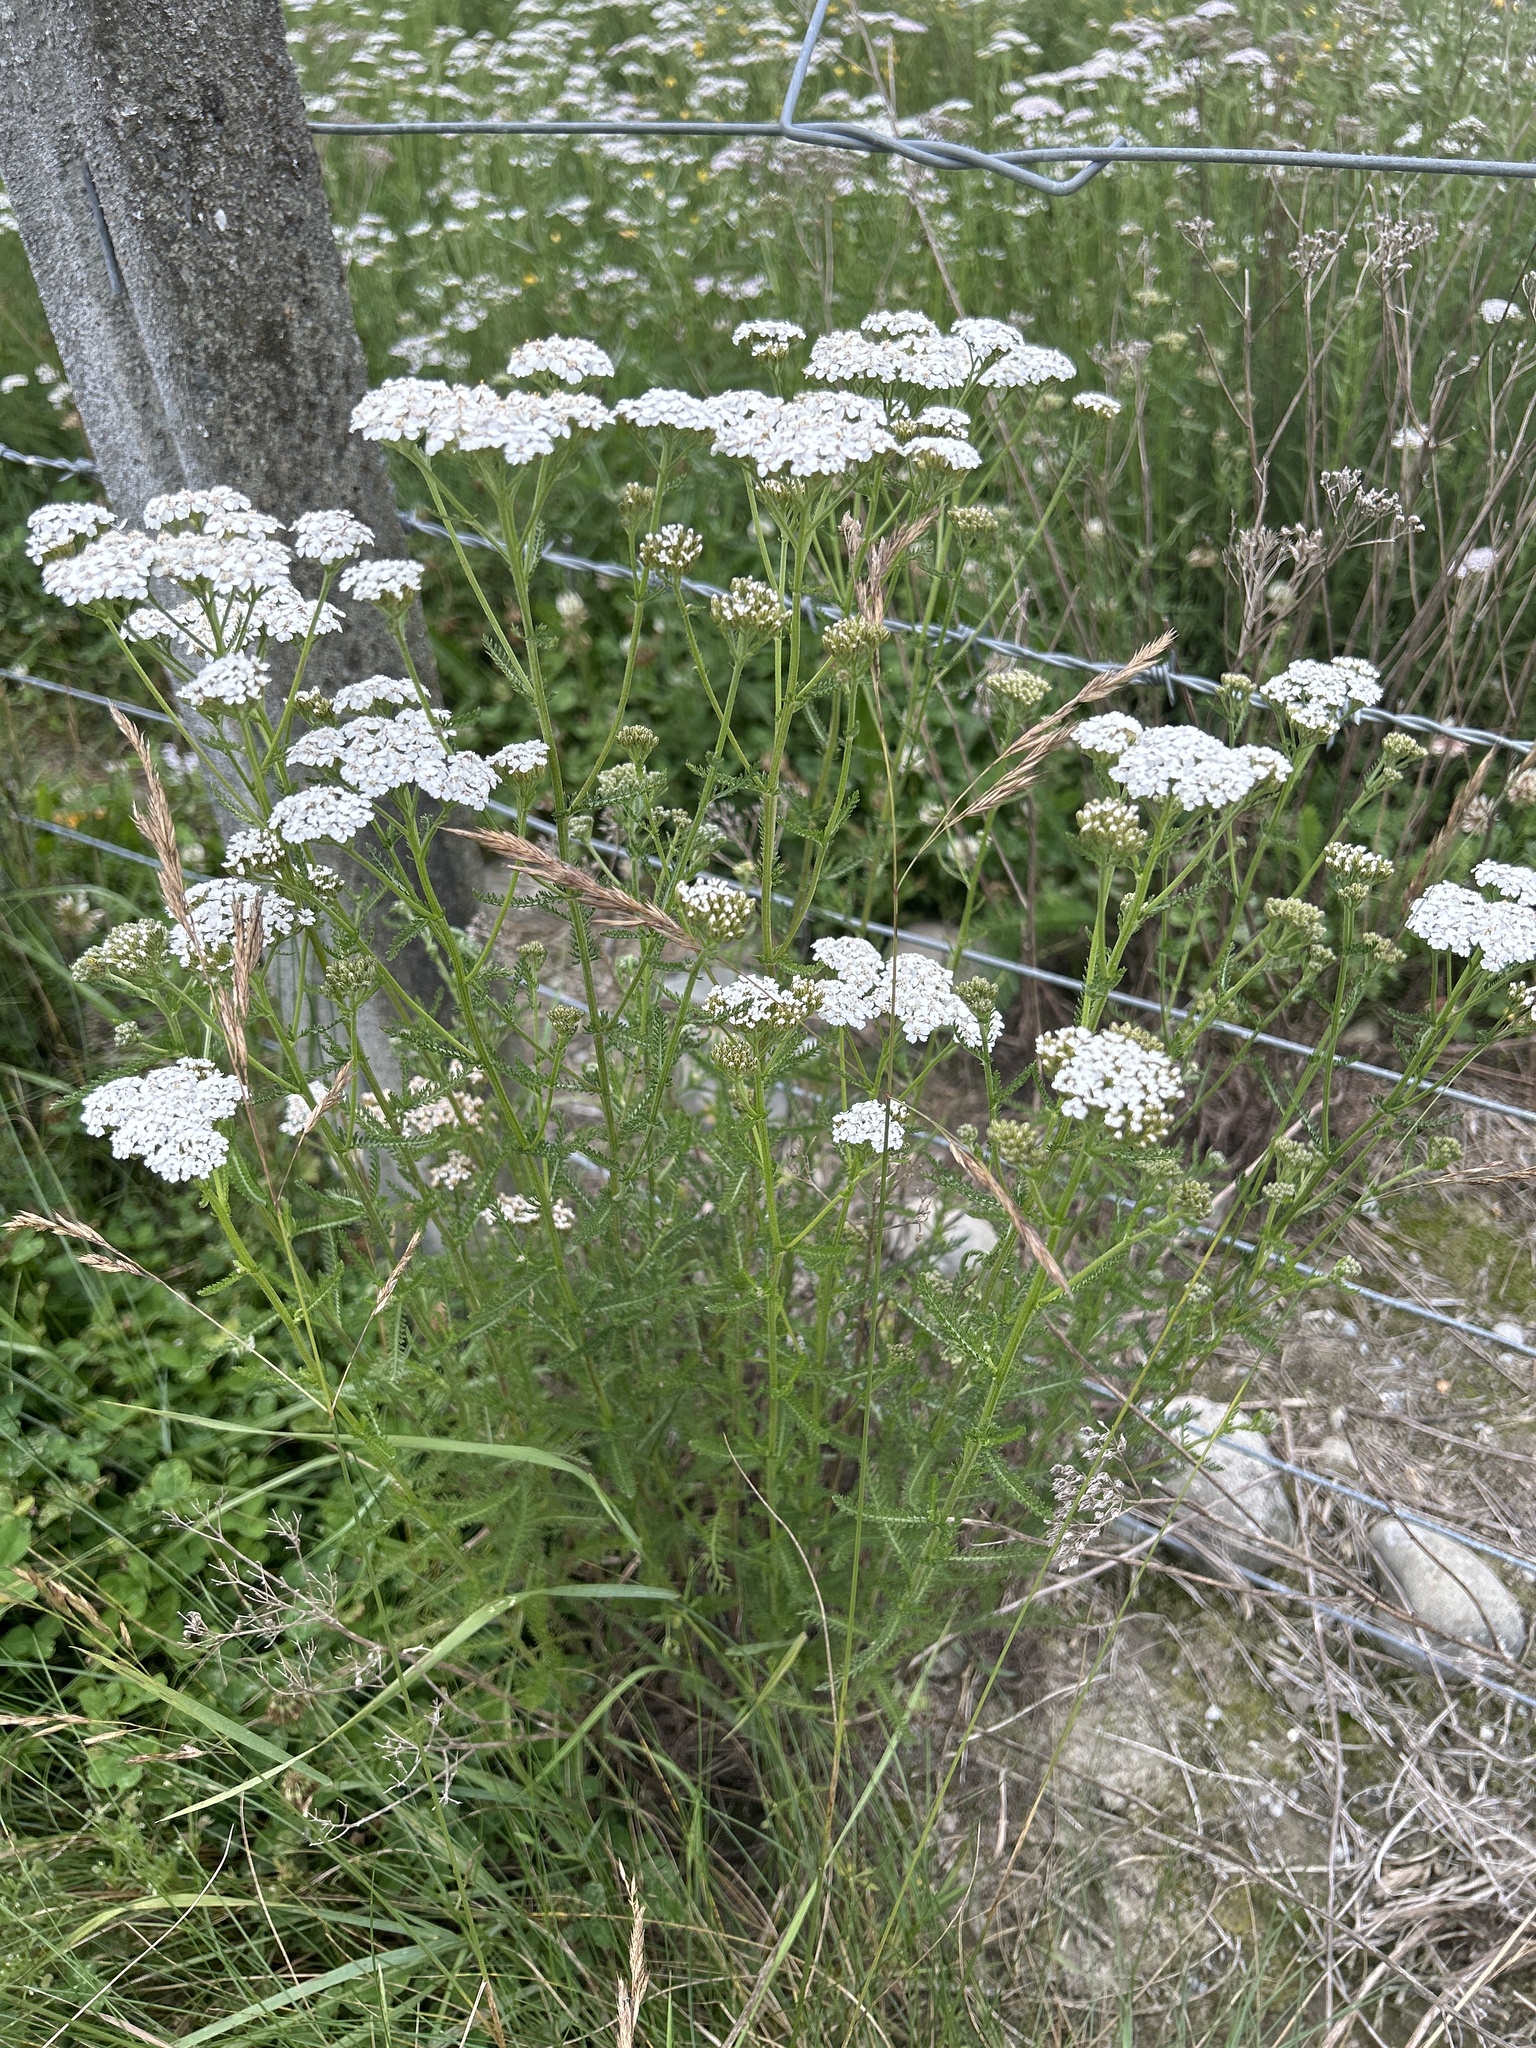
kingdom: Plantae
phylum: Tracheophyta
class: Magnoliopsida
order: Asterales
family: Asteraceae
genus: Achillea
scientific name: Achillea millefolium
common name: Yarrow
